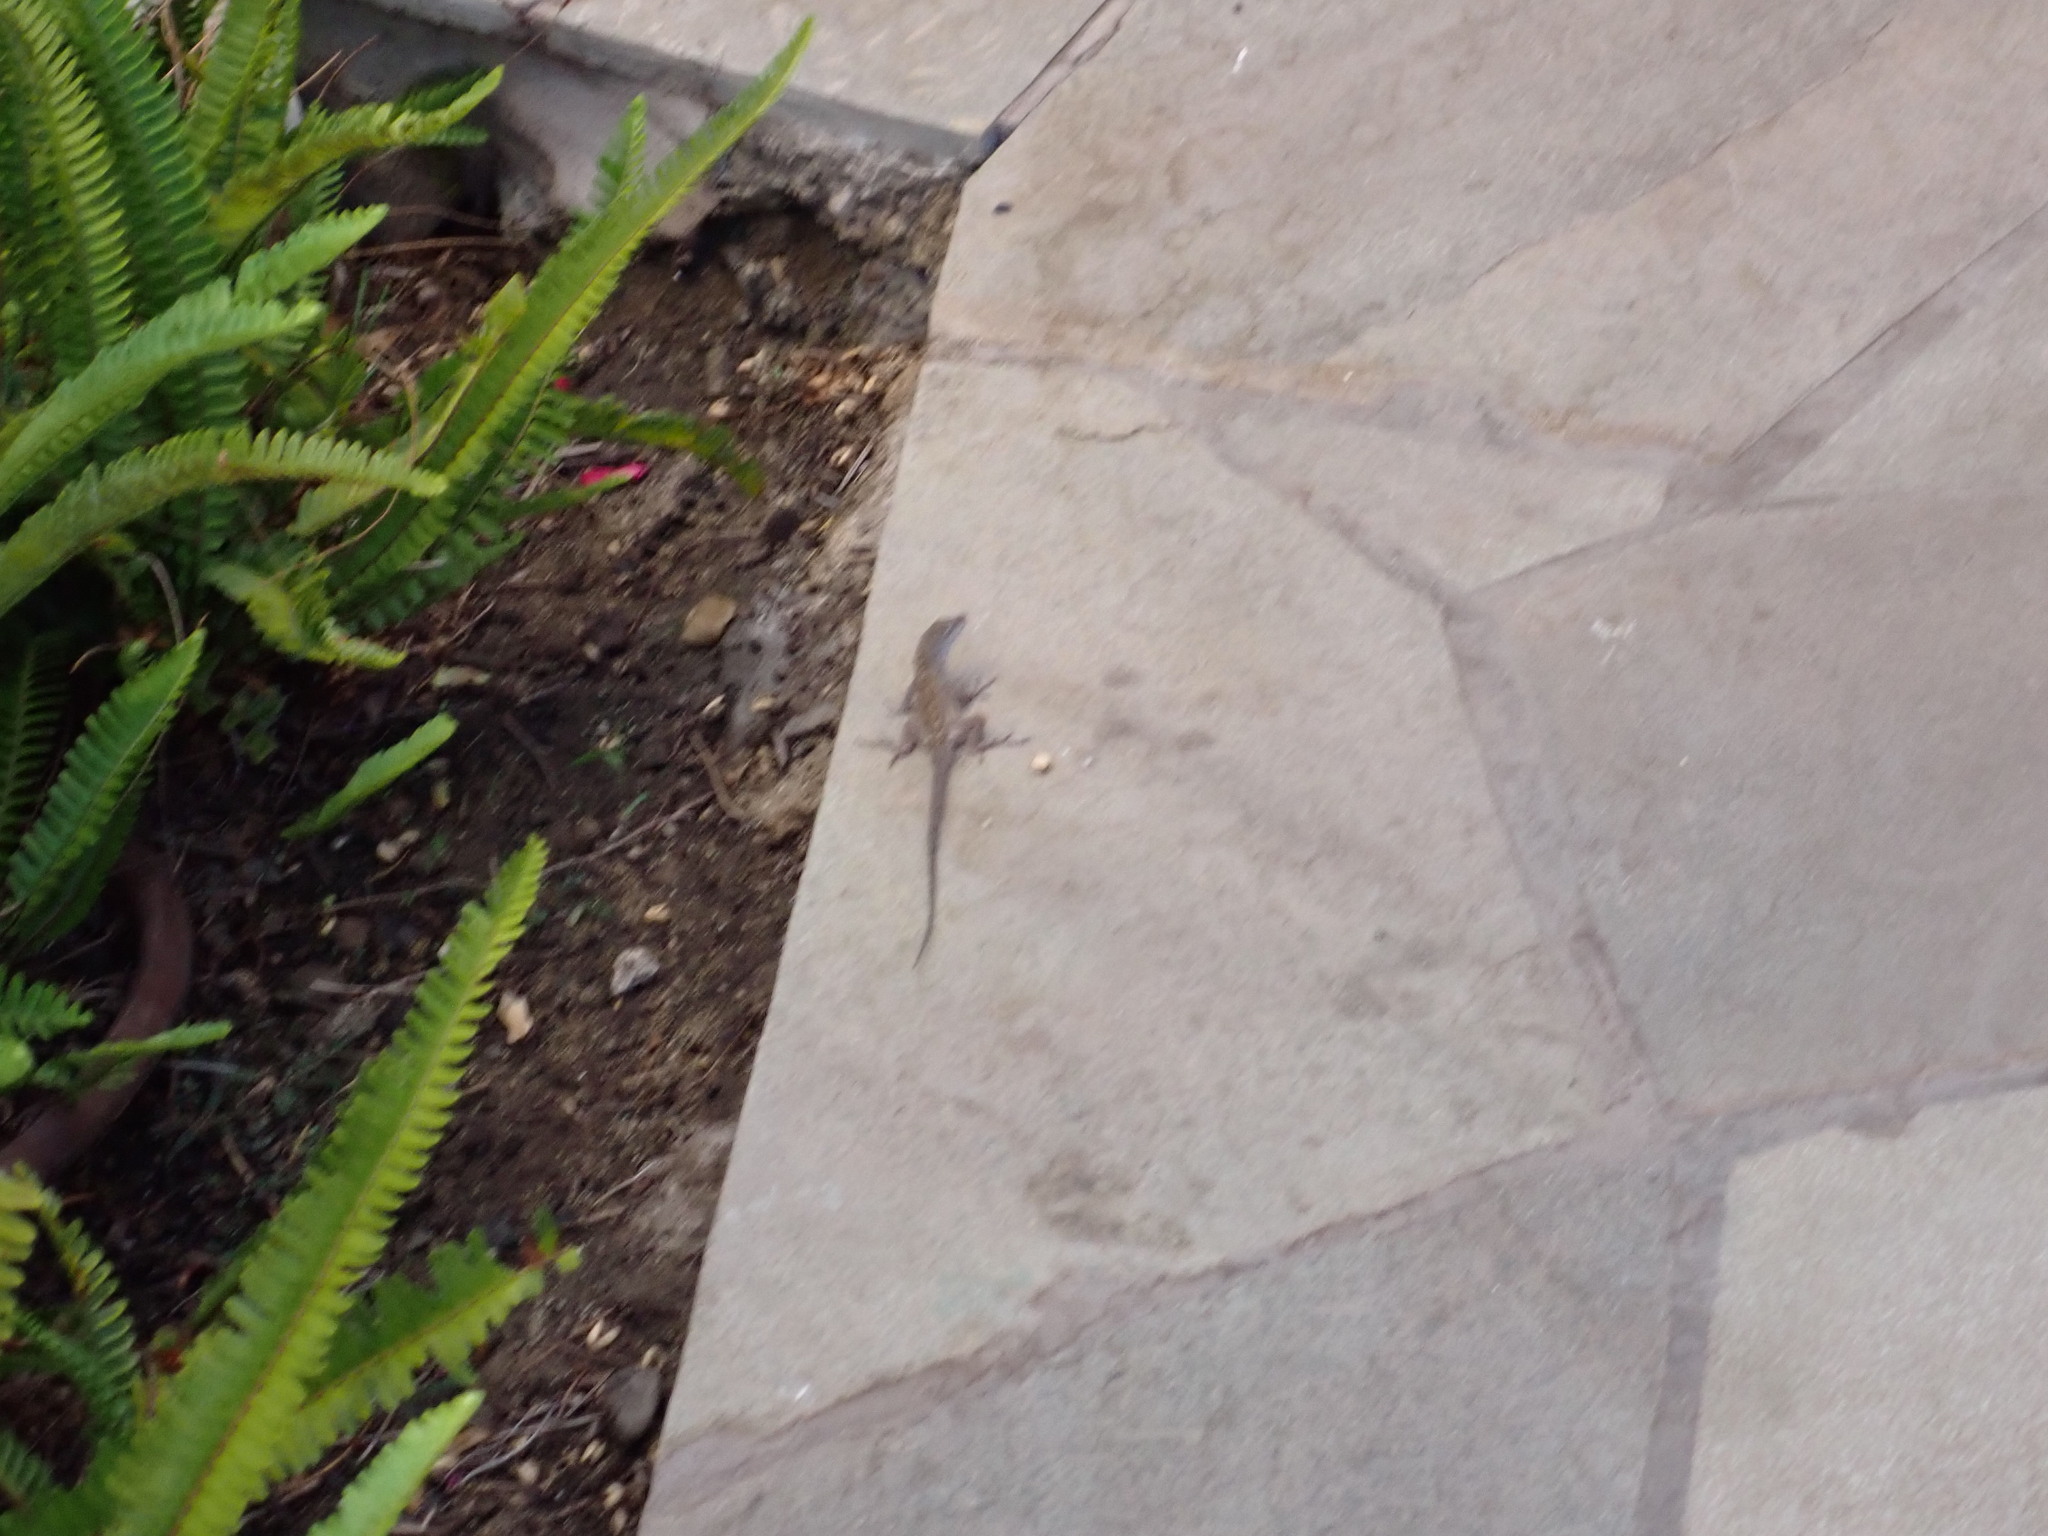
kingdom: Animalia
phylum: Chordata
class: Squamata
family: Dactyloidae
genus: Anolis
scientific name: Anolis sagrei
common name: Brown anole
